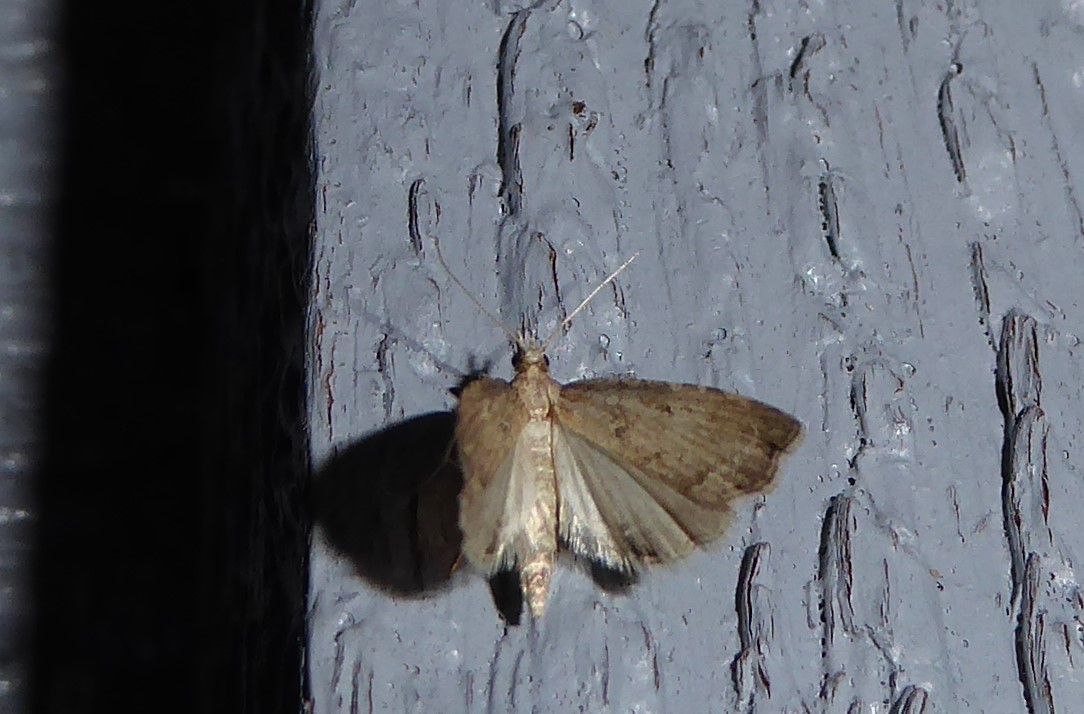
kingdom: Animalia
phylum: Arthropoda
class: Insecta
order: Lepidoptera
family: Crambidae
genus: Diplopseustis
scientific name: Diplopseustis perieresalis
